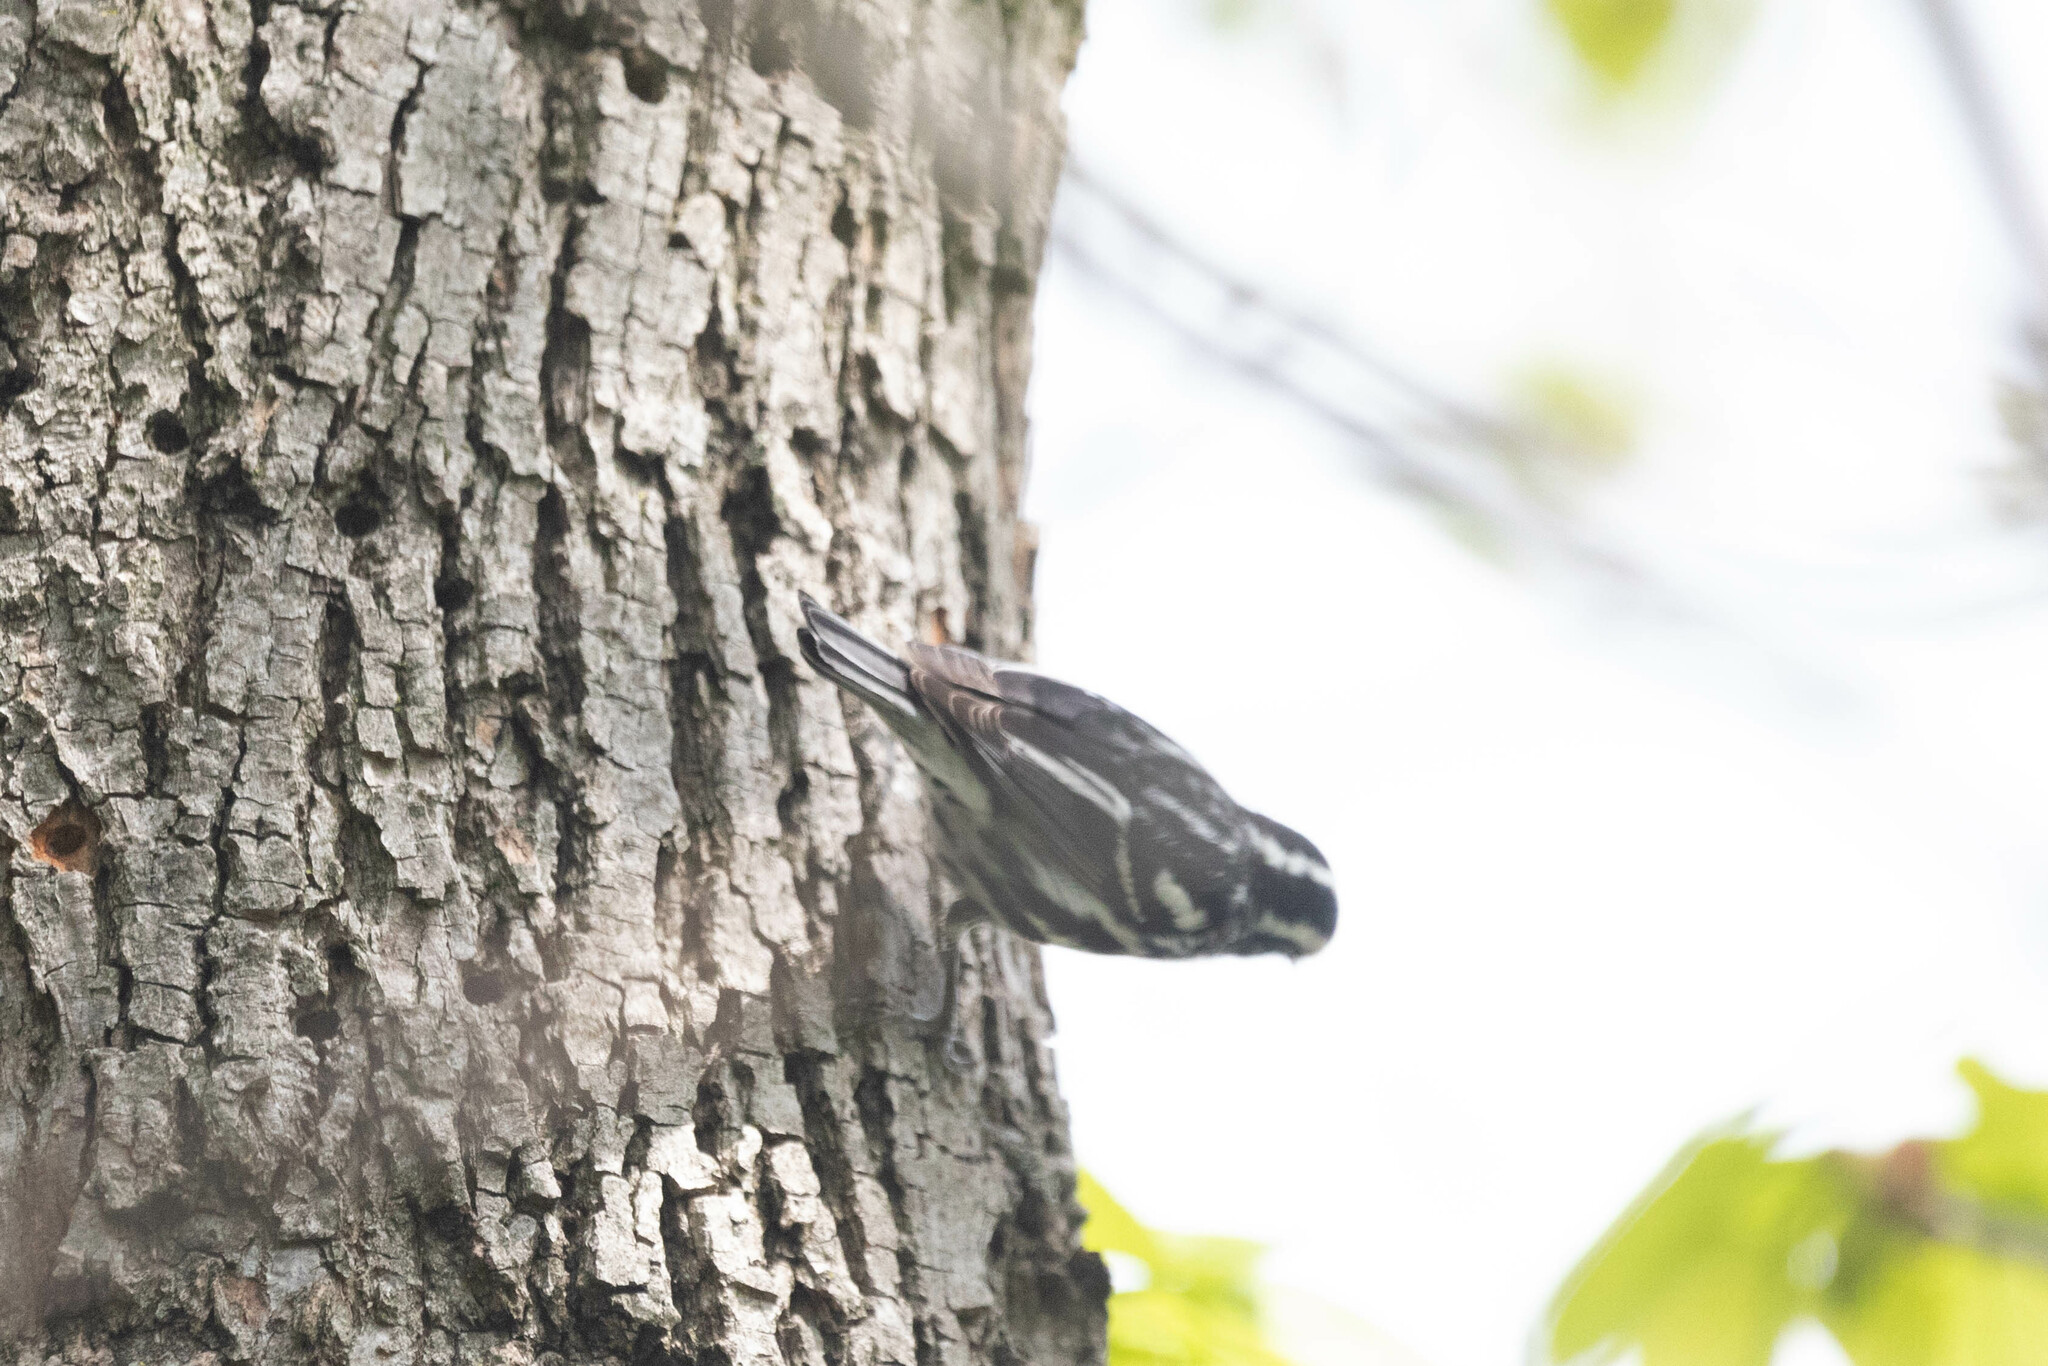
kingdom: Animalia
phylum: Chordata
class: Aves
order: Passeriformes
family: Parulidae
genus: Mniotilta
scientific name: Mniotilta varia
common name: Black-and-white warbler
